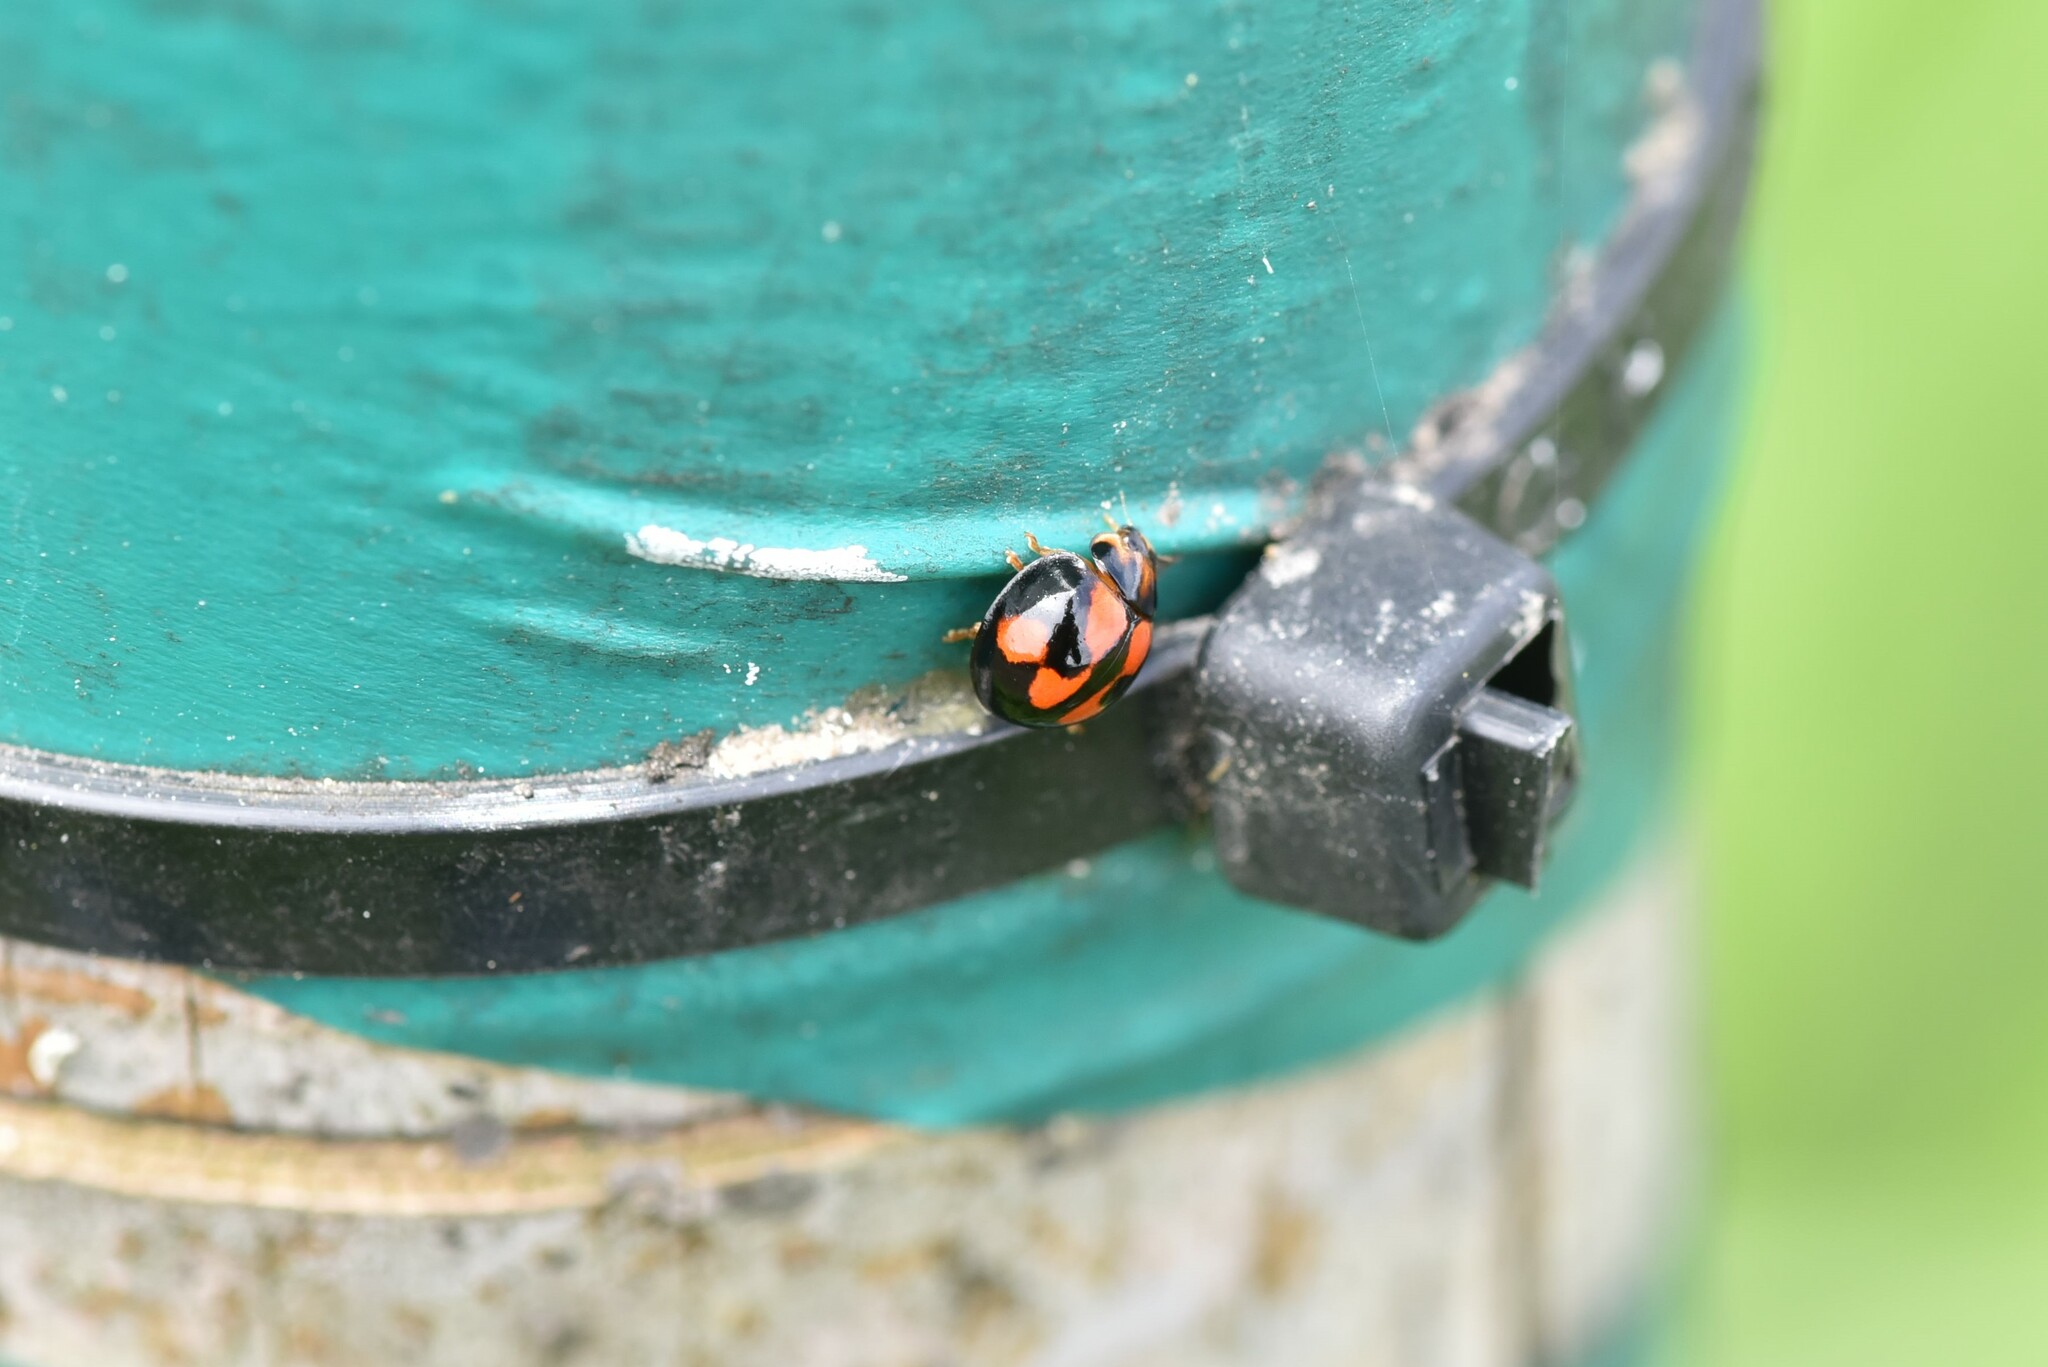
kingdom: Animalia
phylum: Arthropoda
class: Insecta
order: Coleoptera
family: Coccinellidae
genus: Coelophora
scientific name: Coelophora inaequalis
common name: Common australian lady beetle
